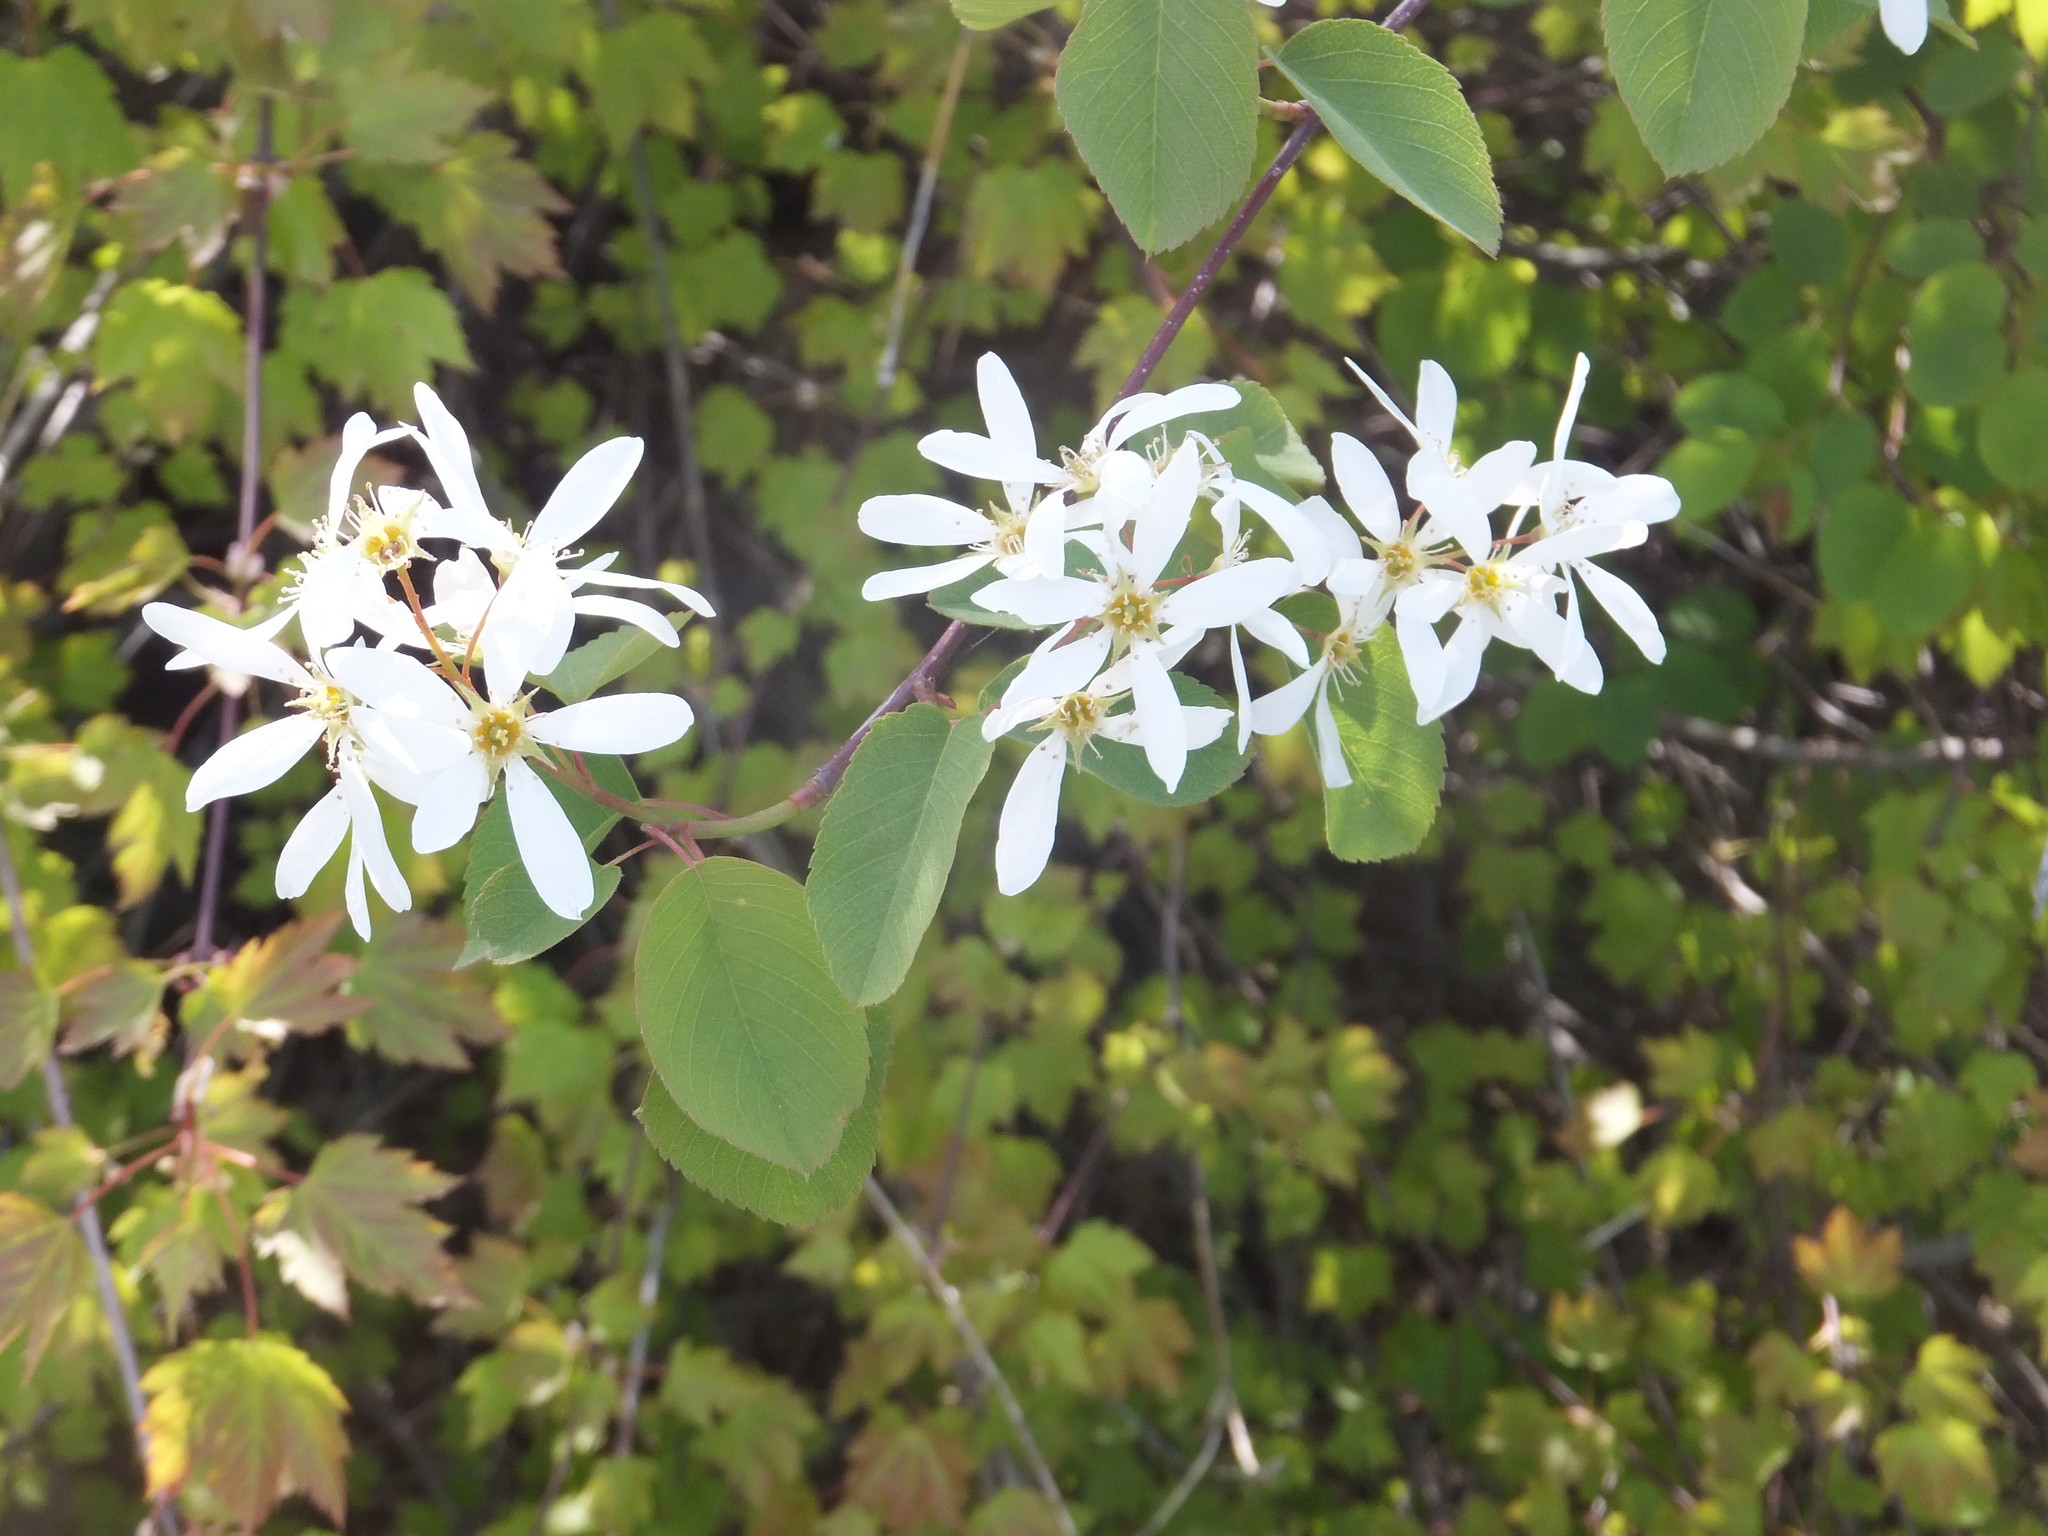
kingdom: Plantae
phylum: Tracheophyta
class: Magnoliopsida
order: Rosales
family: Rosaceae
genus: Amelanchier
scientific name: Amelanchier alnifolia
